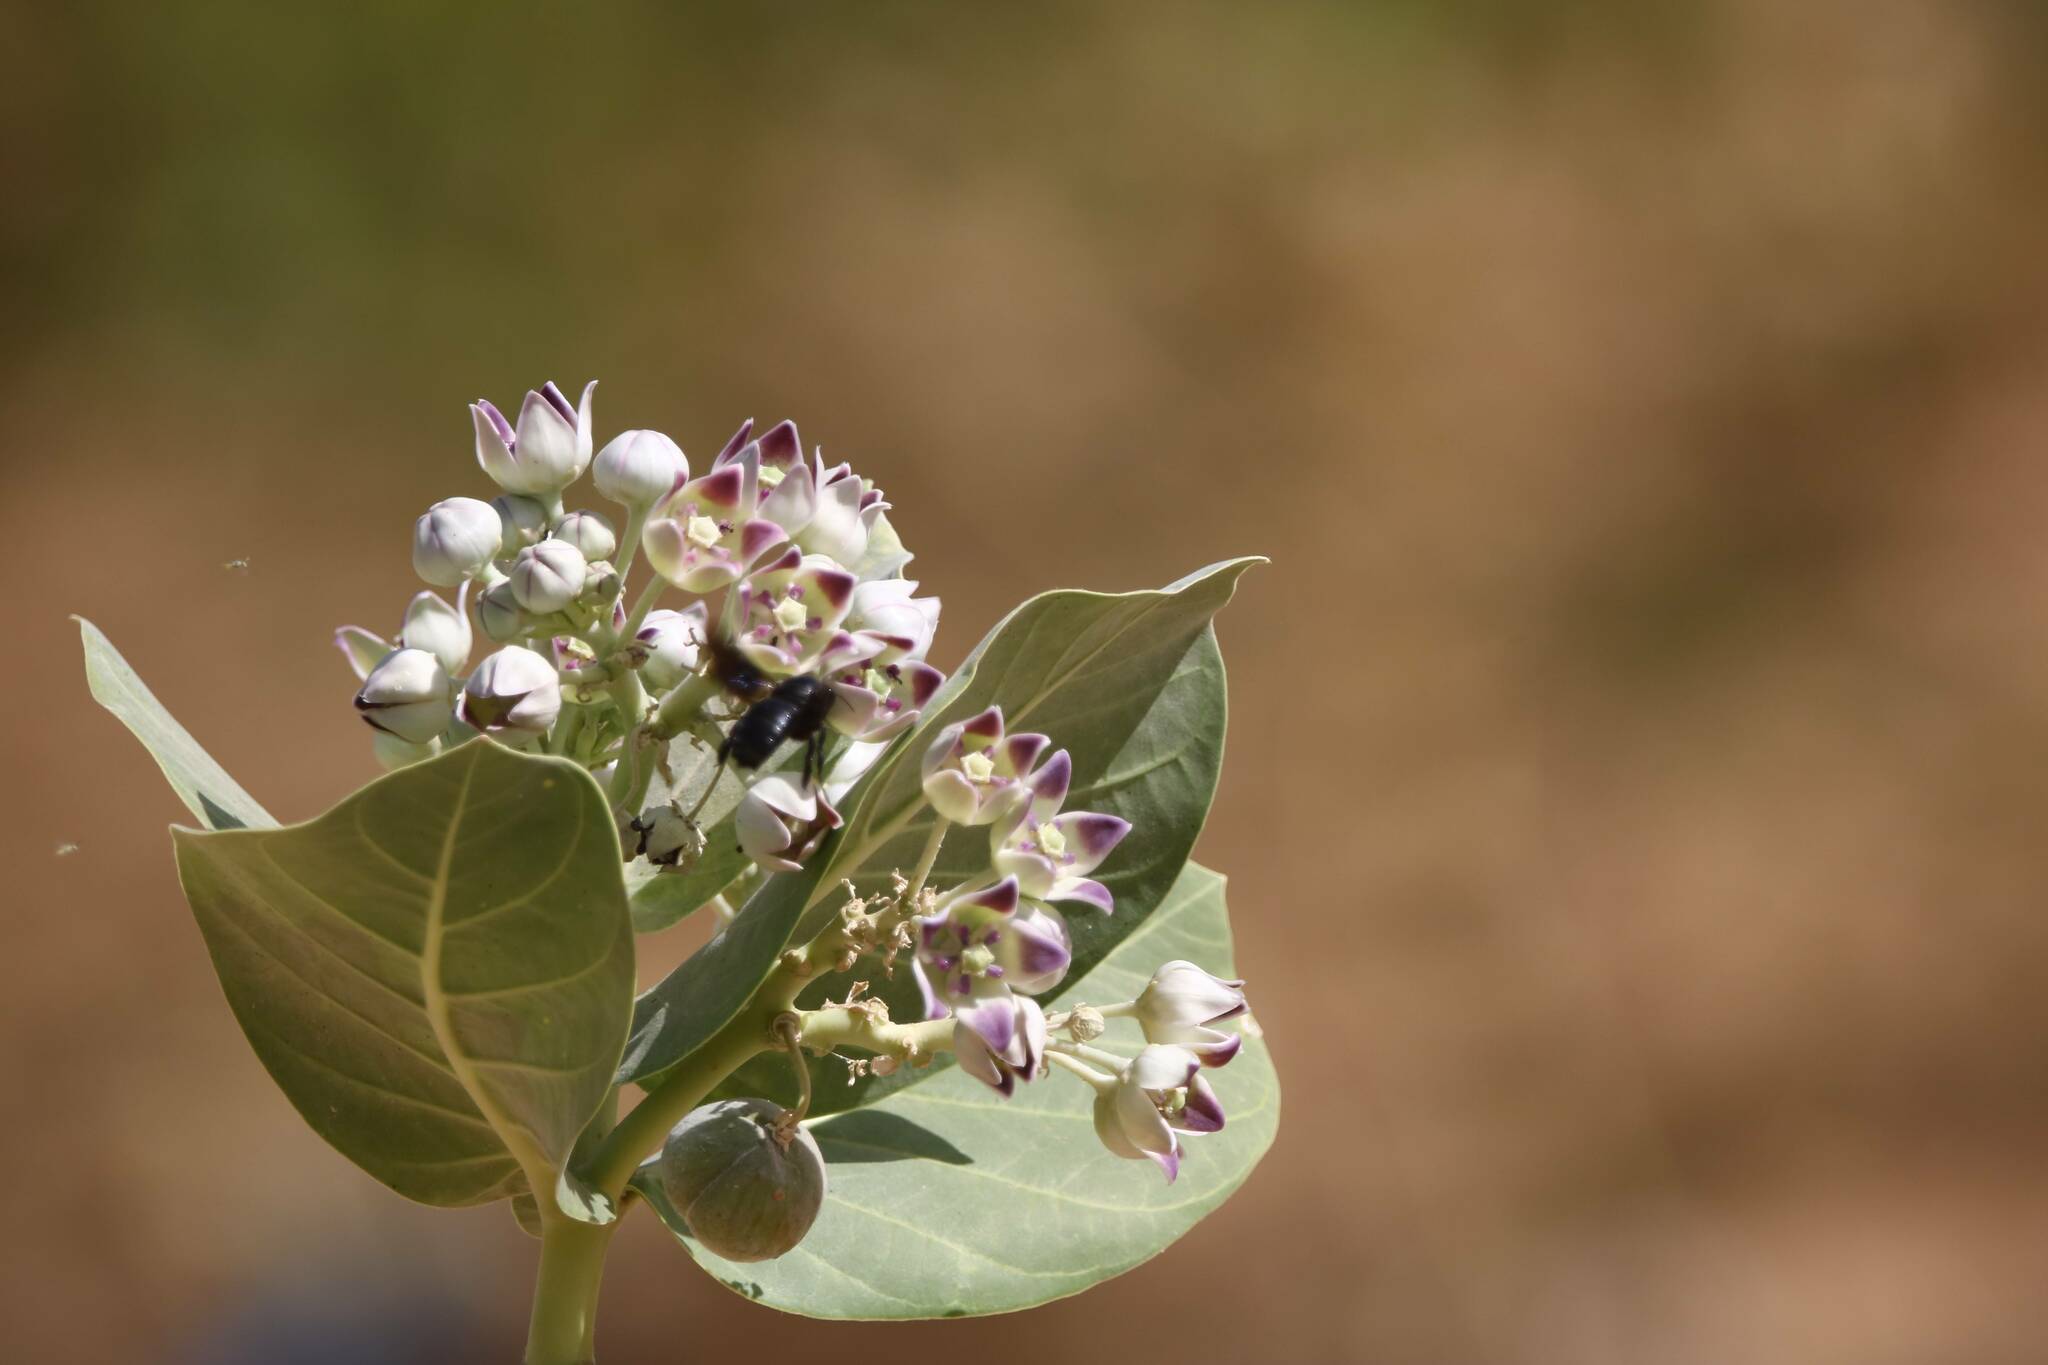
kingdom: Plantae
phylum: Tracheophyta
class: Magnoliopsida
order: Gentianales
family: Apocynaceae
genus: Calotropis
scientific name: Calotropis procera
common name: Roostertree
